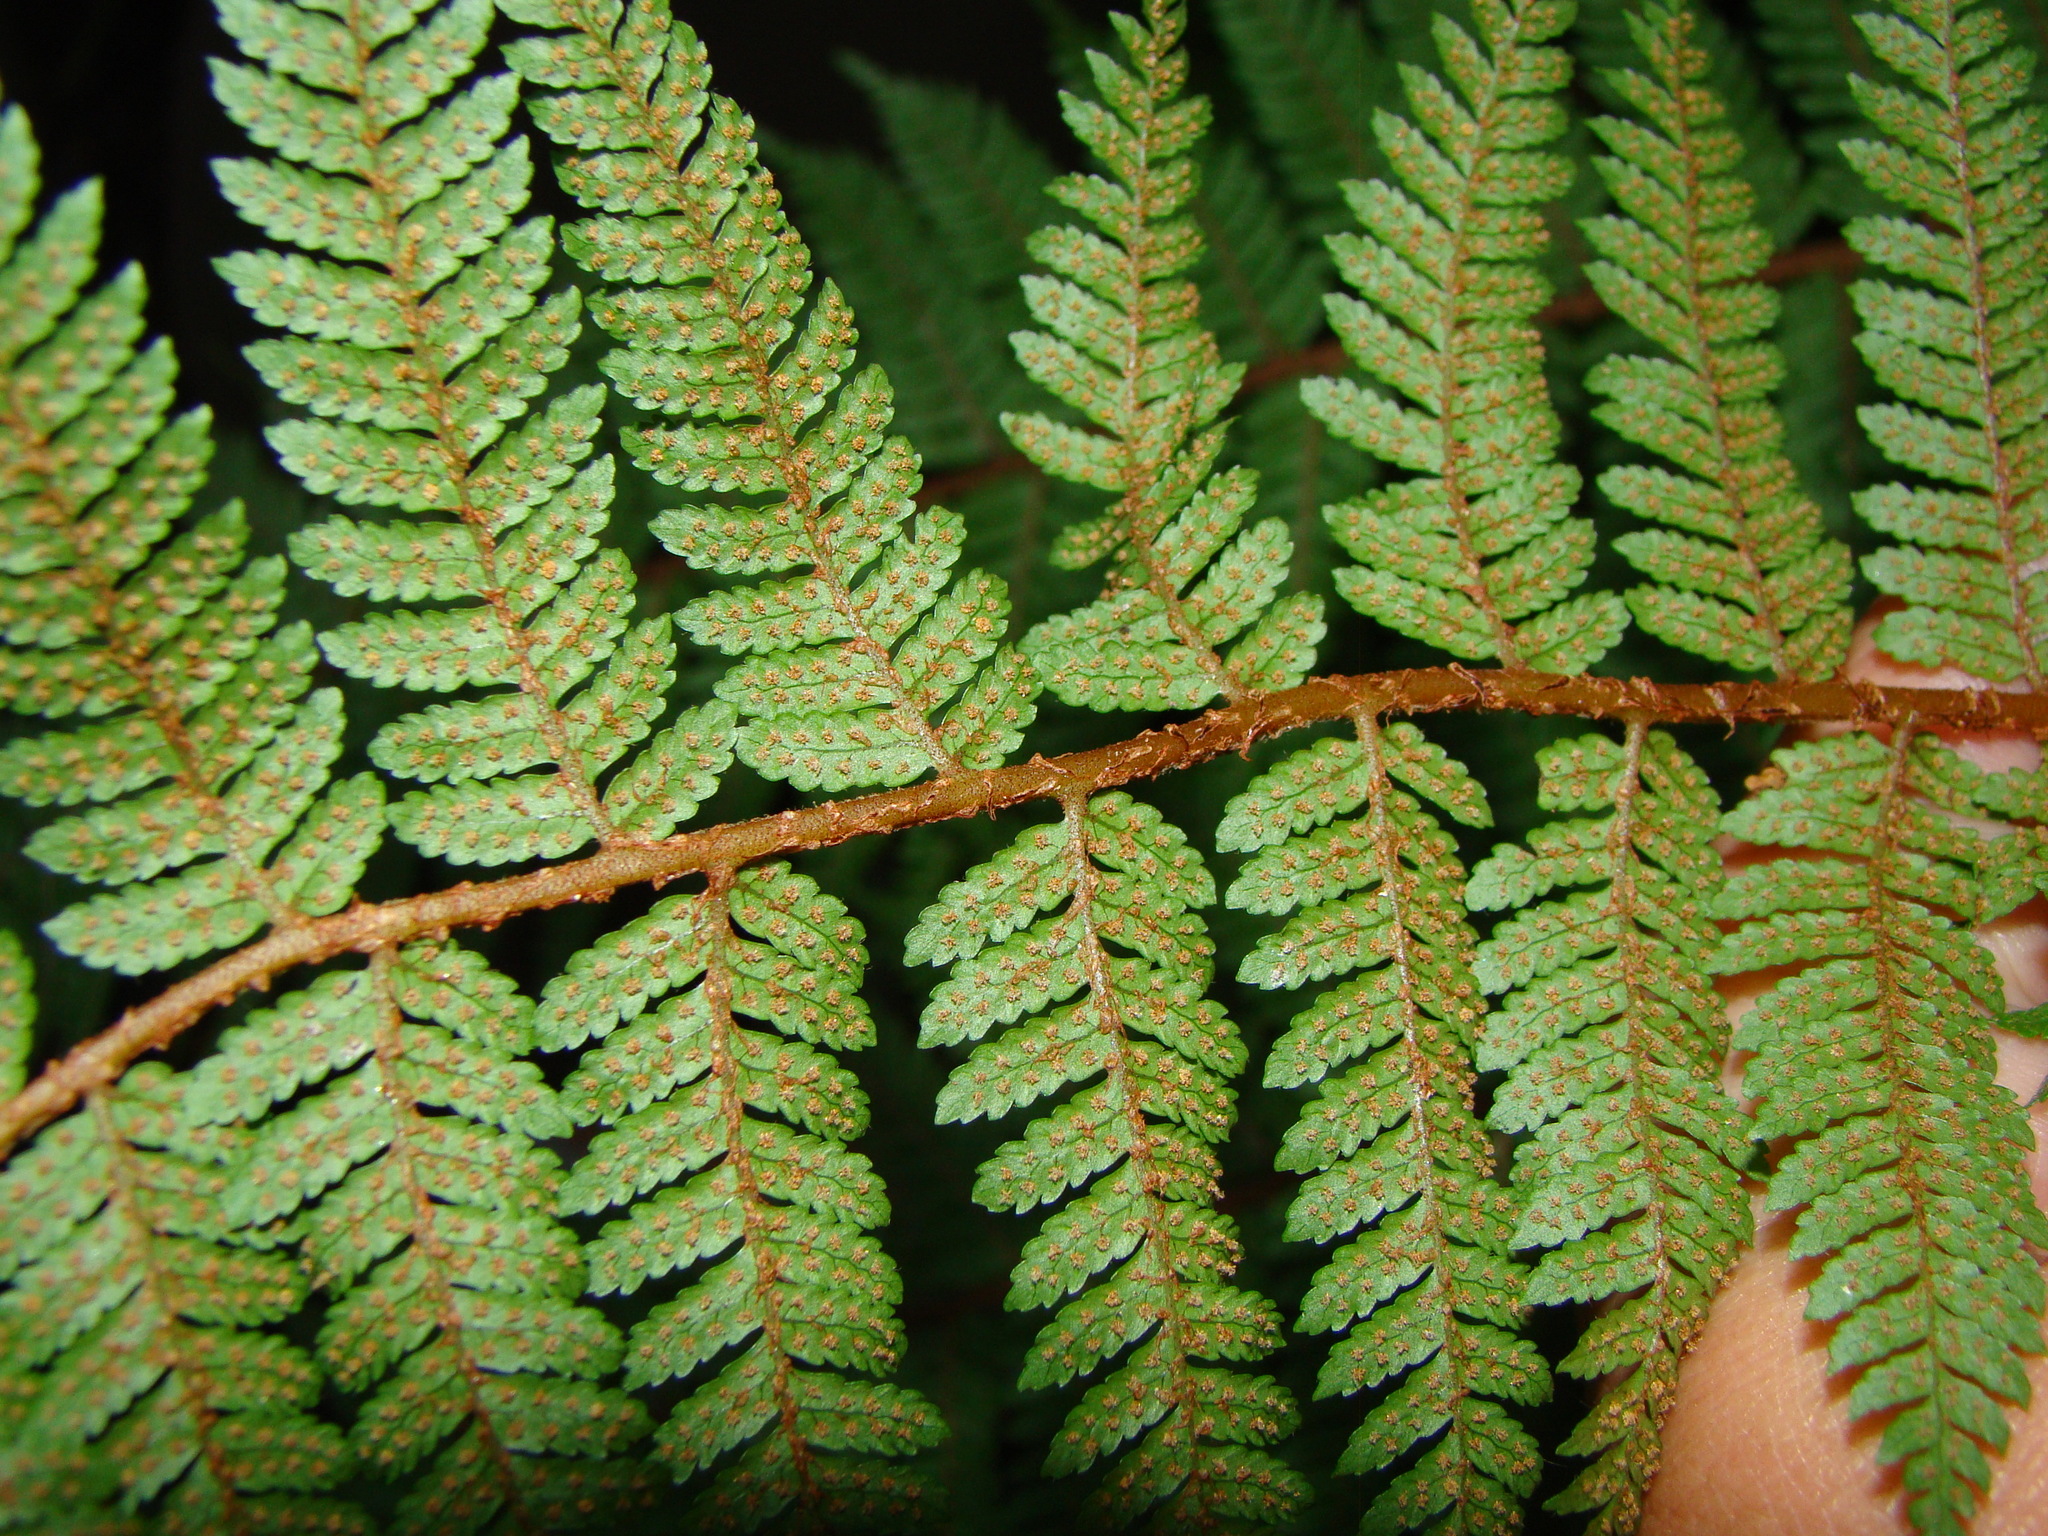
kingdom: Plantae
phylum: Tracheophyta
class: Polypodiopsida
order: Cyatheales
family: Cyatheaceae
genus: Alsophila
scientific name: Alsophila colensoi
